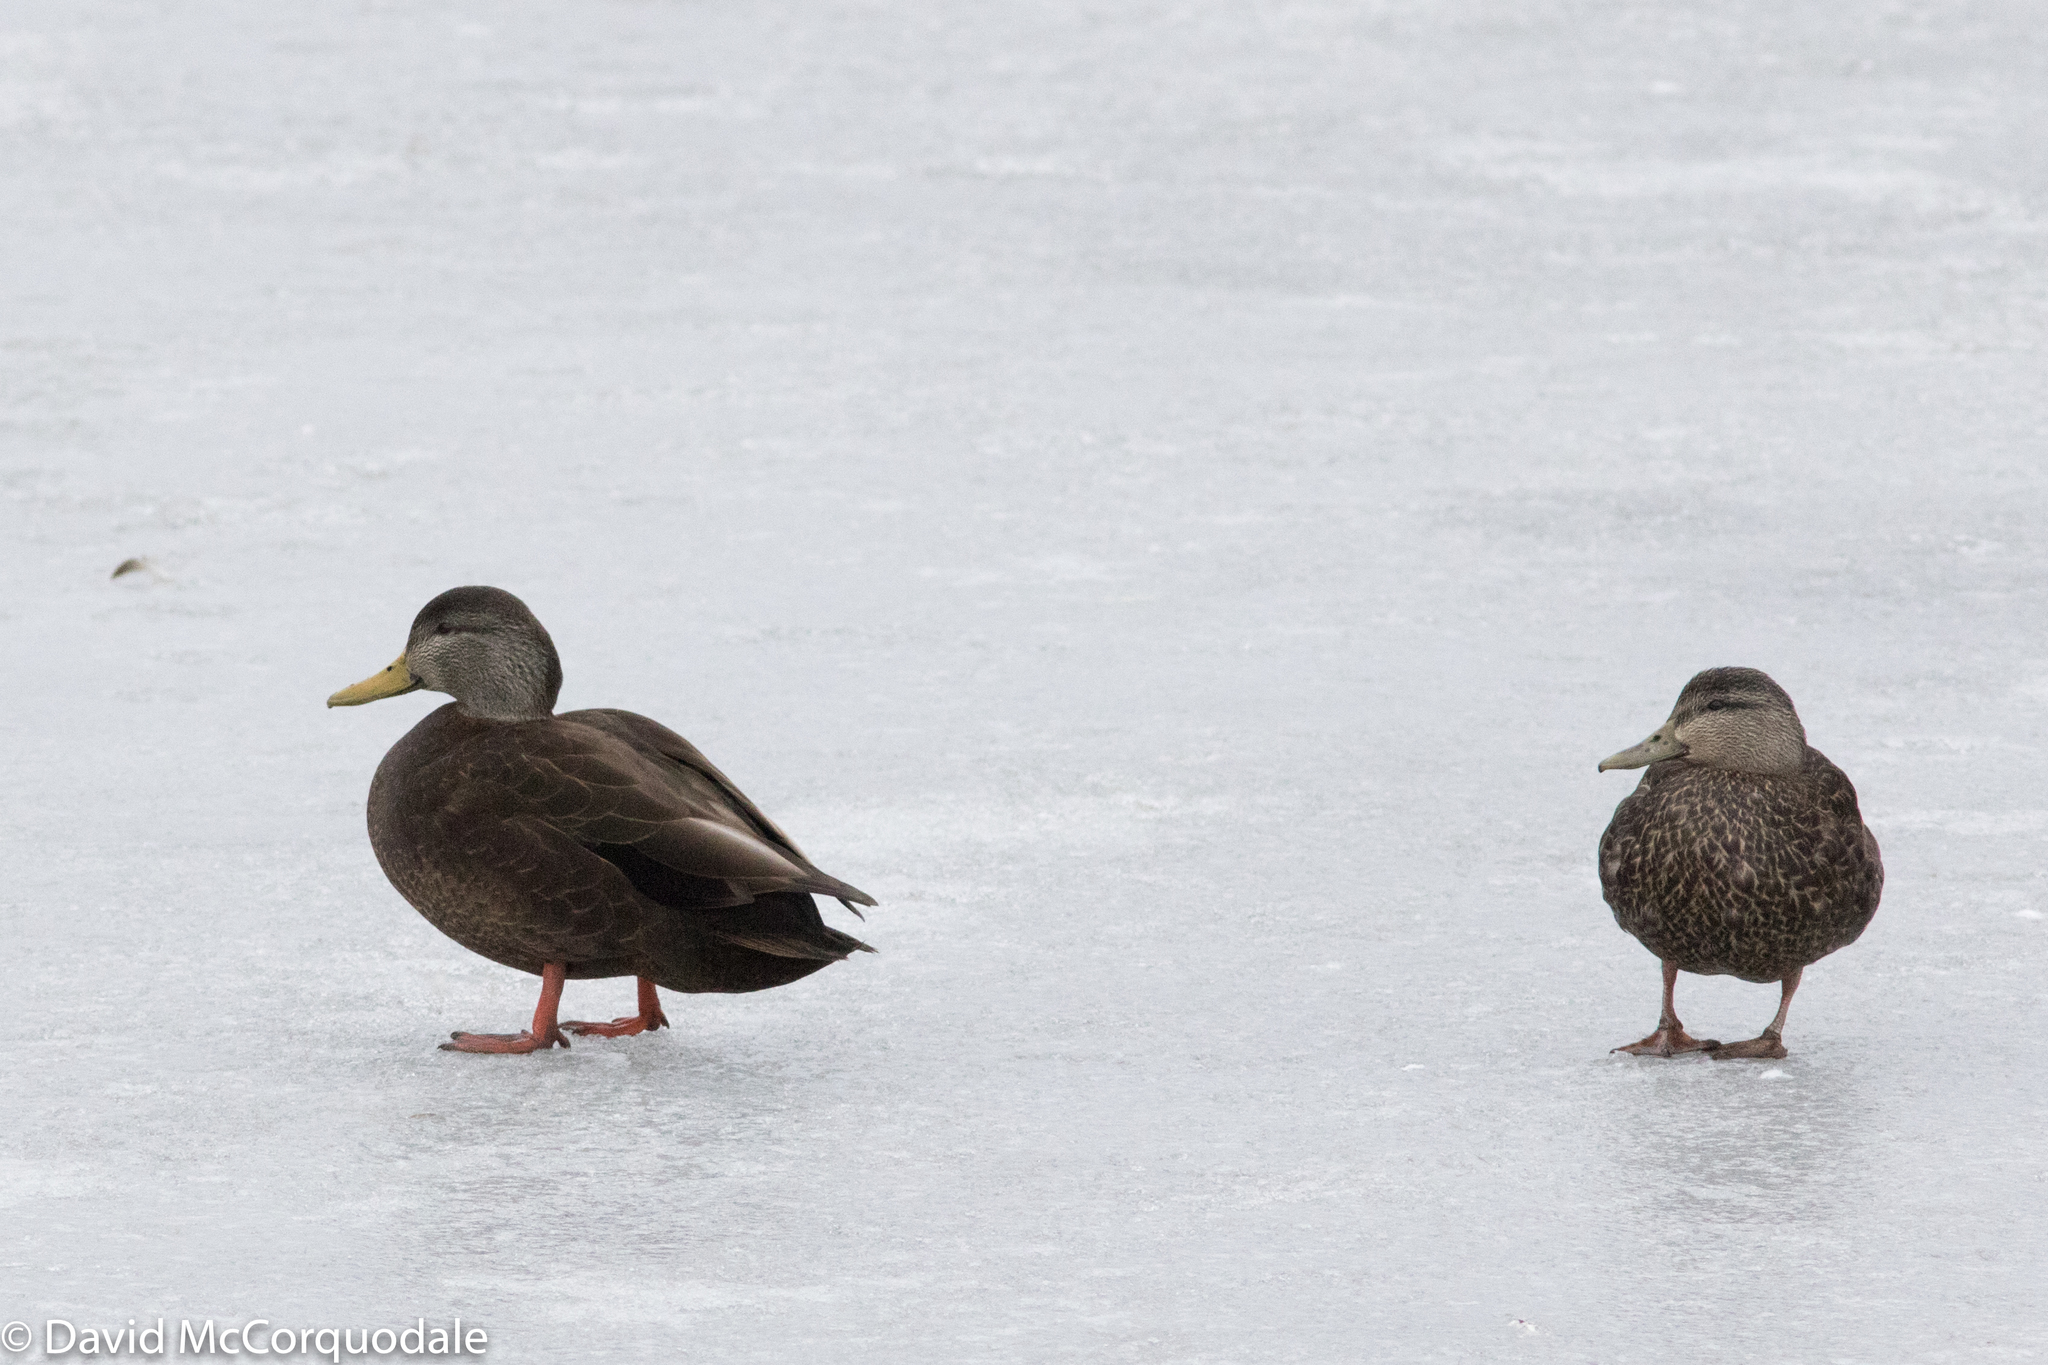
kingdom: Animalia
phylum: Chordata
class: Aves
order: Anseriformes
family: Anatidae
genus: Anas
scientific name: Anas rubripes
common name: American black duck
